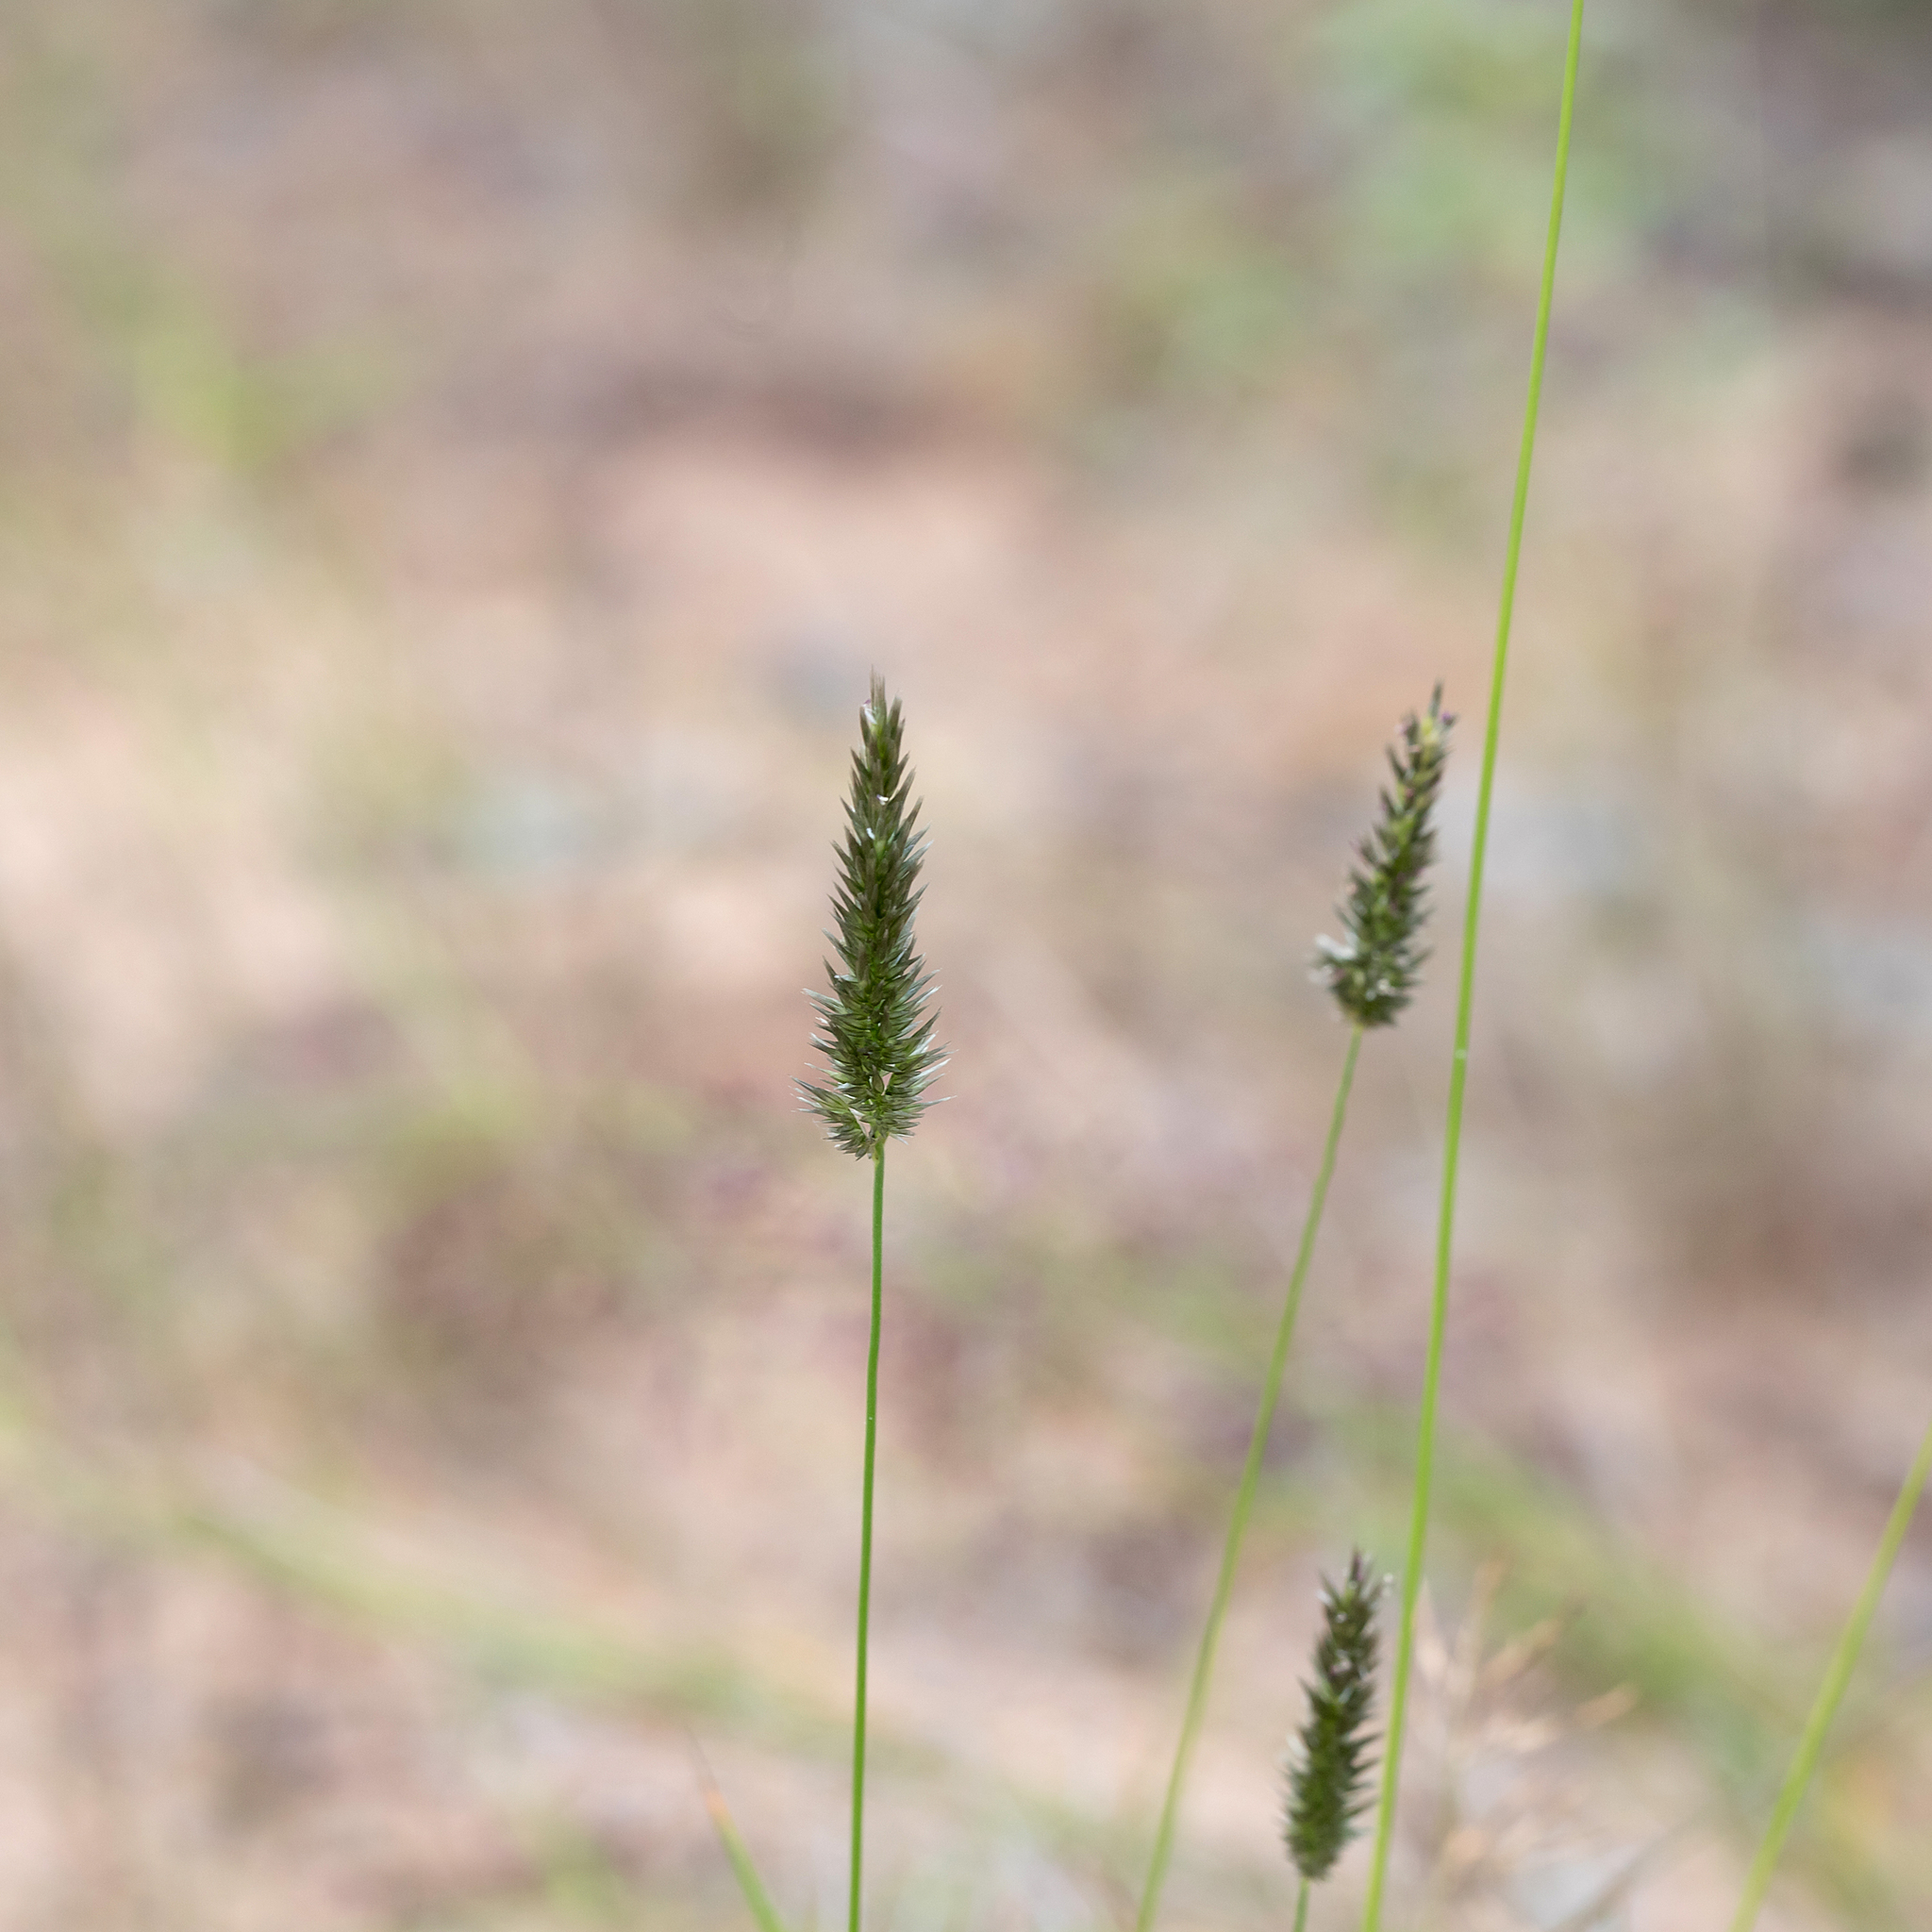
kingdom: Plantae
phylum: Tracheophyta
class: Liliopsida
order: Poales
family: Poaceae
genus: Enneapogon
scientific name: Enneapogon robustissimus
